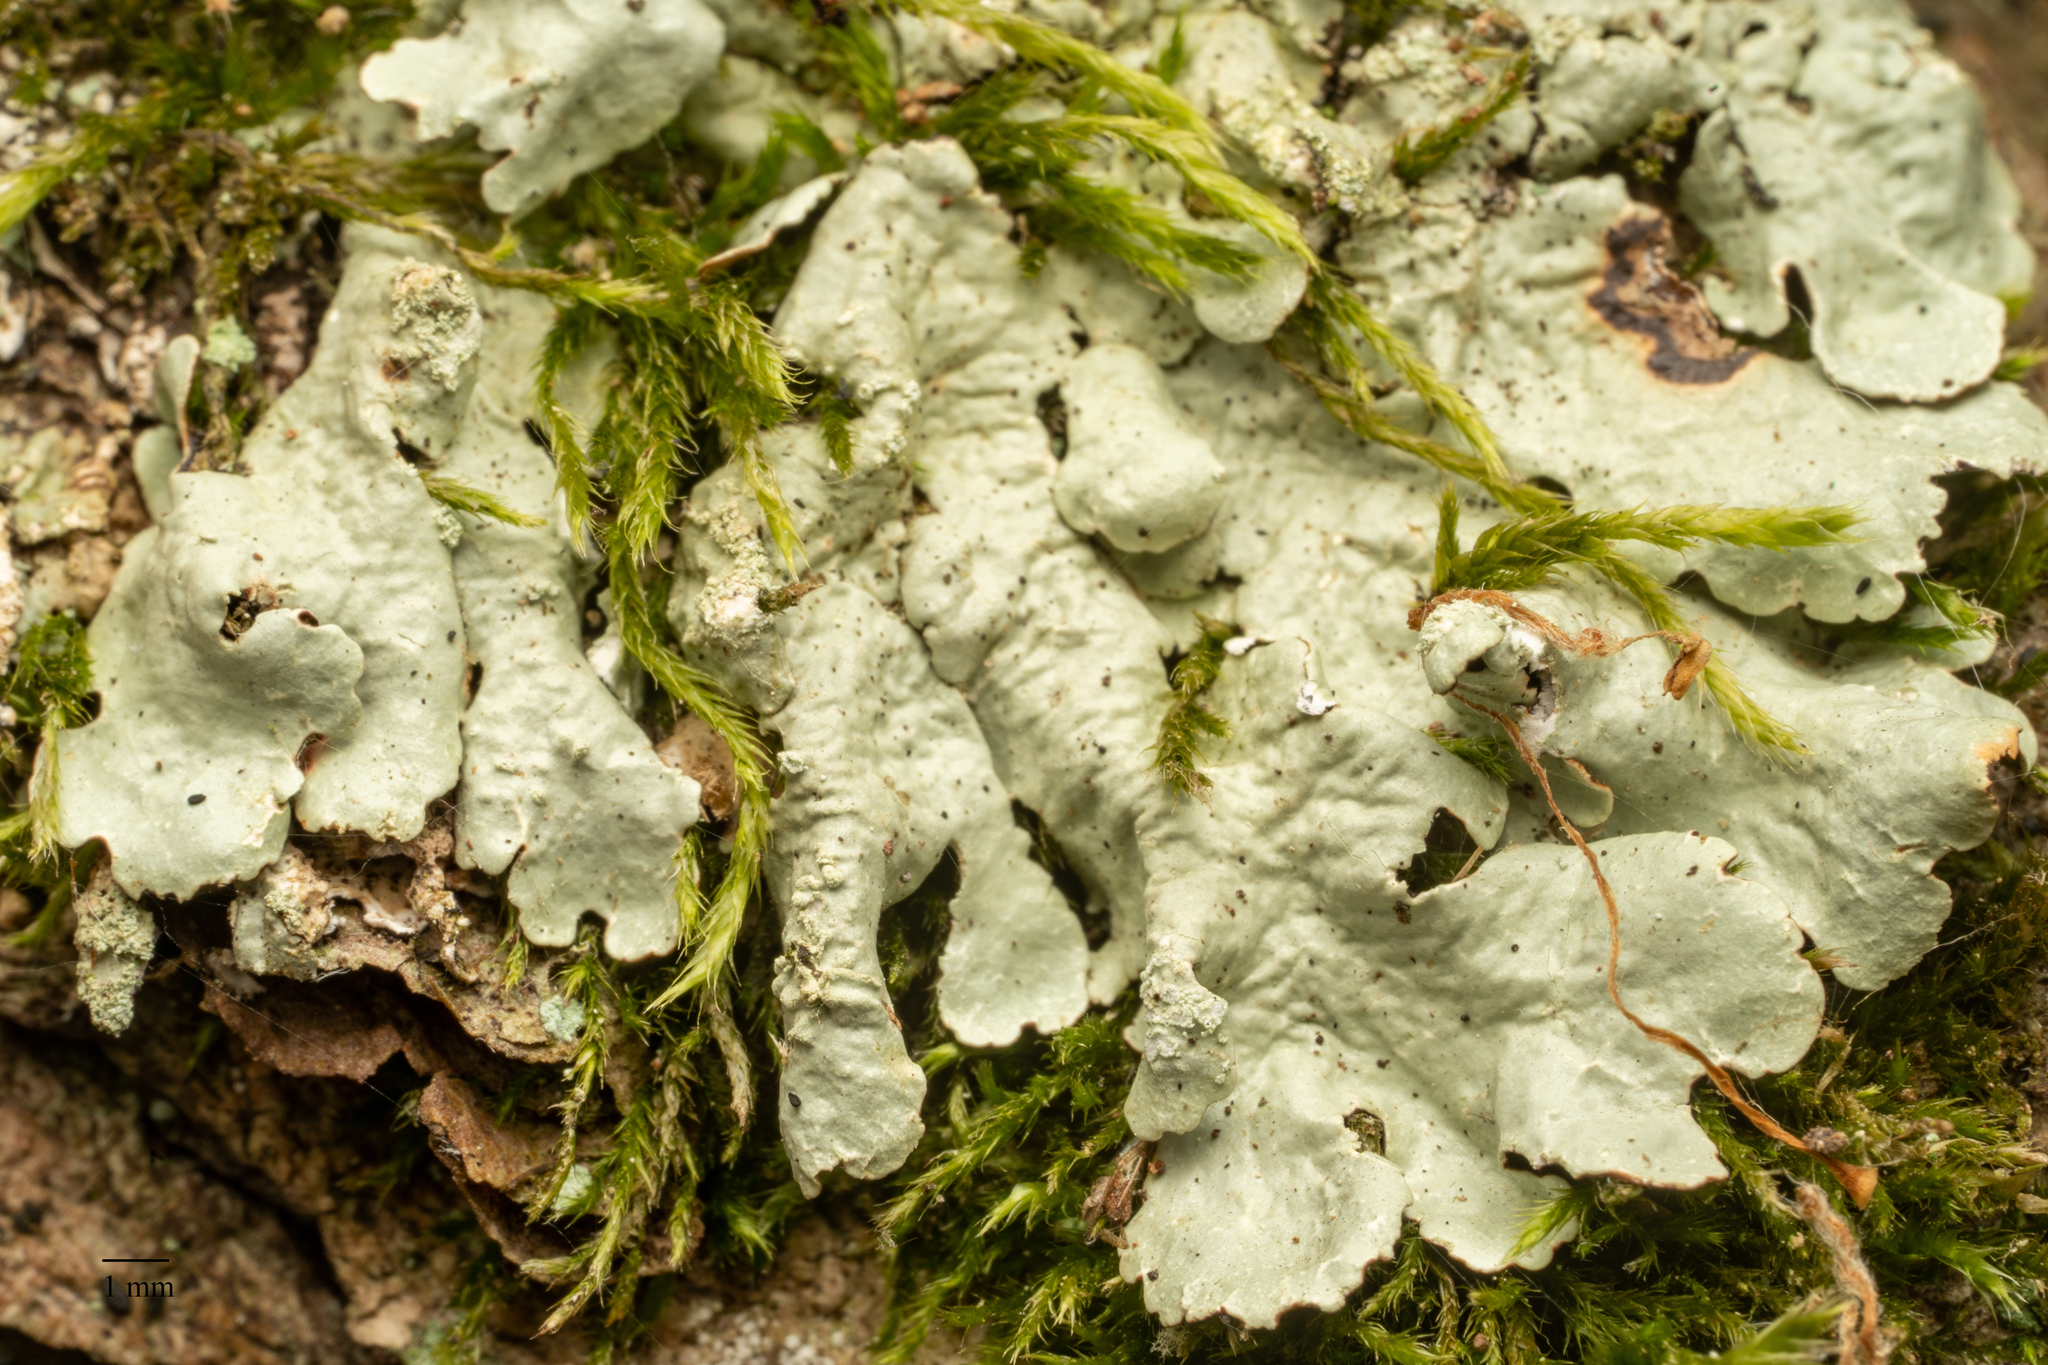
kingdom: Fungi
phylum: Ascomycota
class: Lecanoromycetes
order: Lecanorales
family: Parmeliaceae
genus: Flavoparmelia
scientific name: Flavoparmelia caperata
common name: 40-mile per hour lichen
